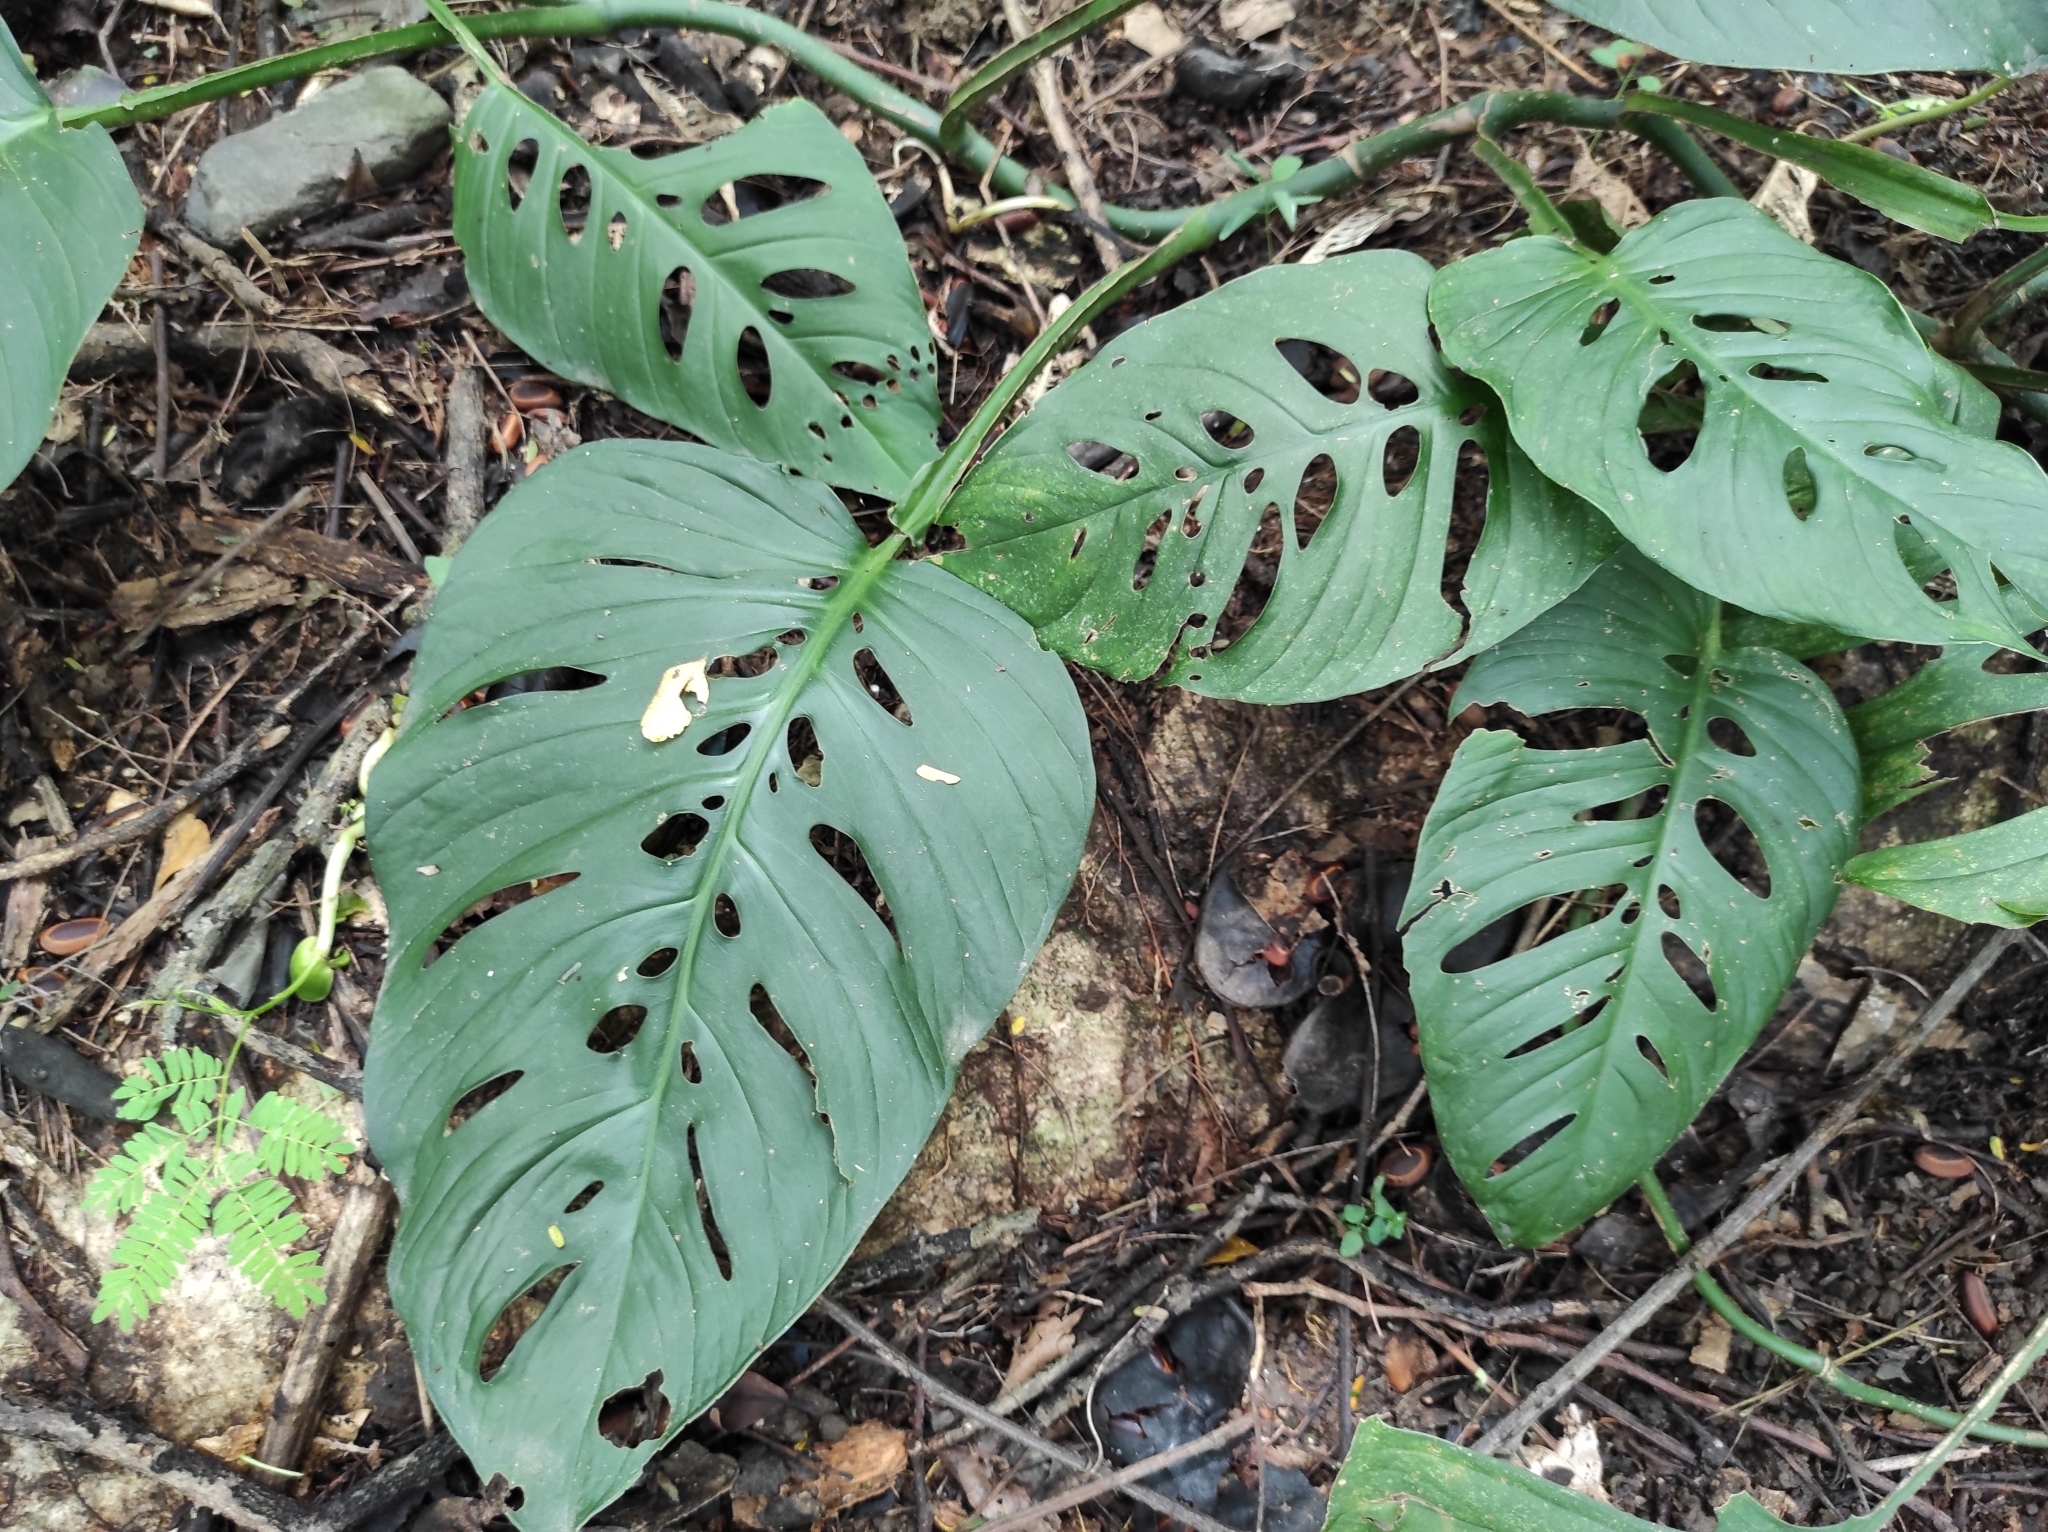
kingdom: Plantae
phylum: Tracheophyta
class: Liliopsida
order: Alismatales
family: Araceae
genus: Monstera
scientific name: Monstera adansonii
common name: Tarovine
